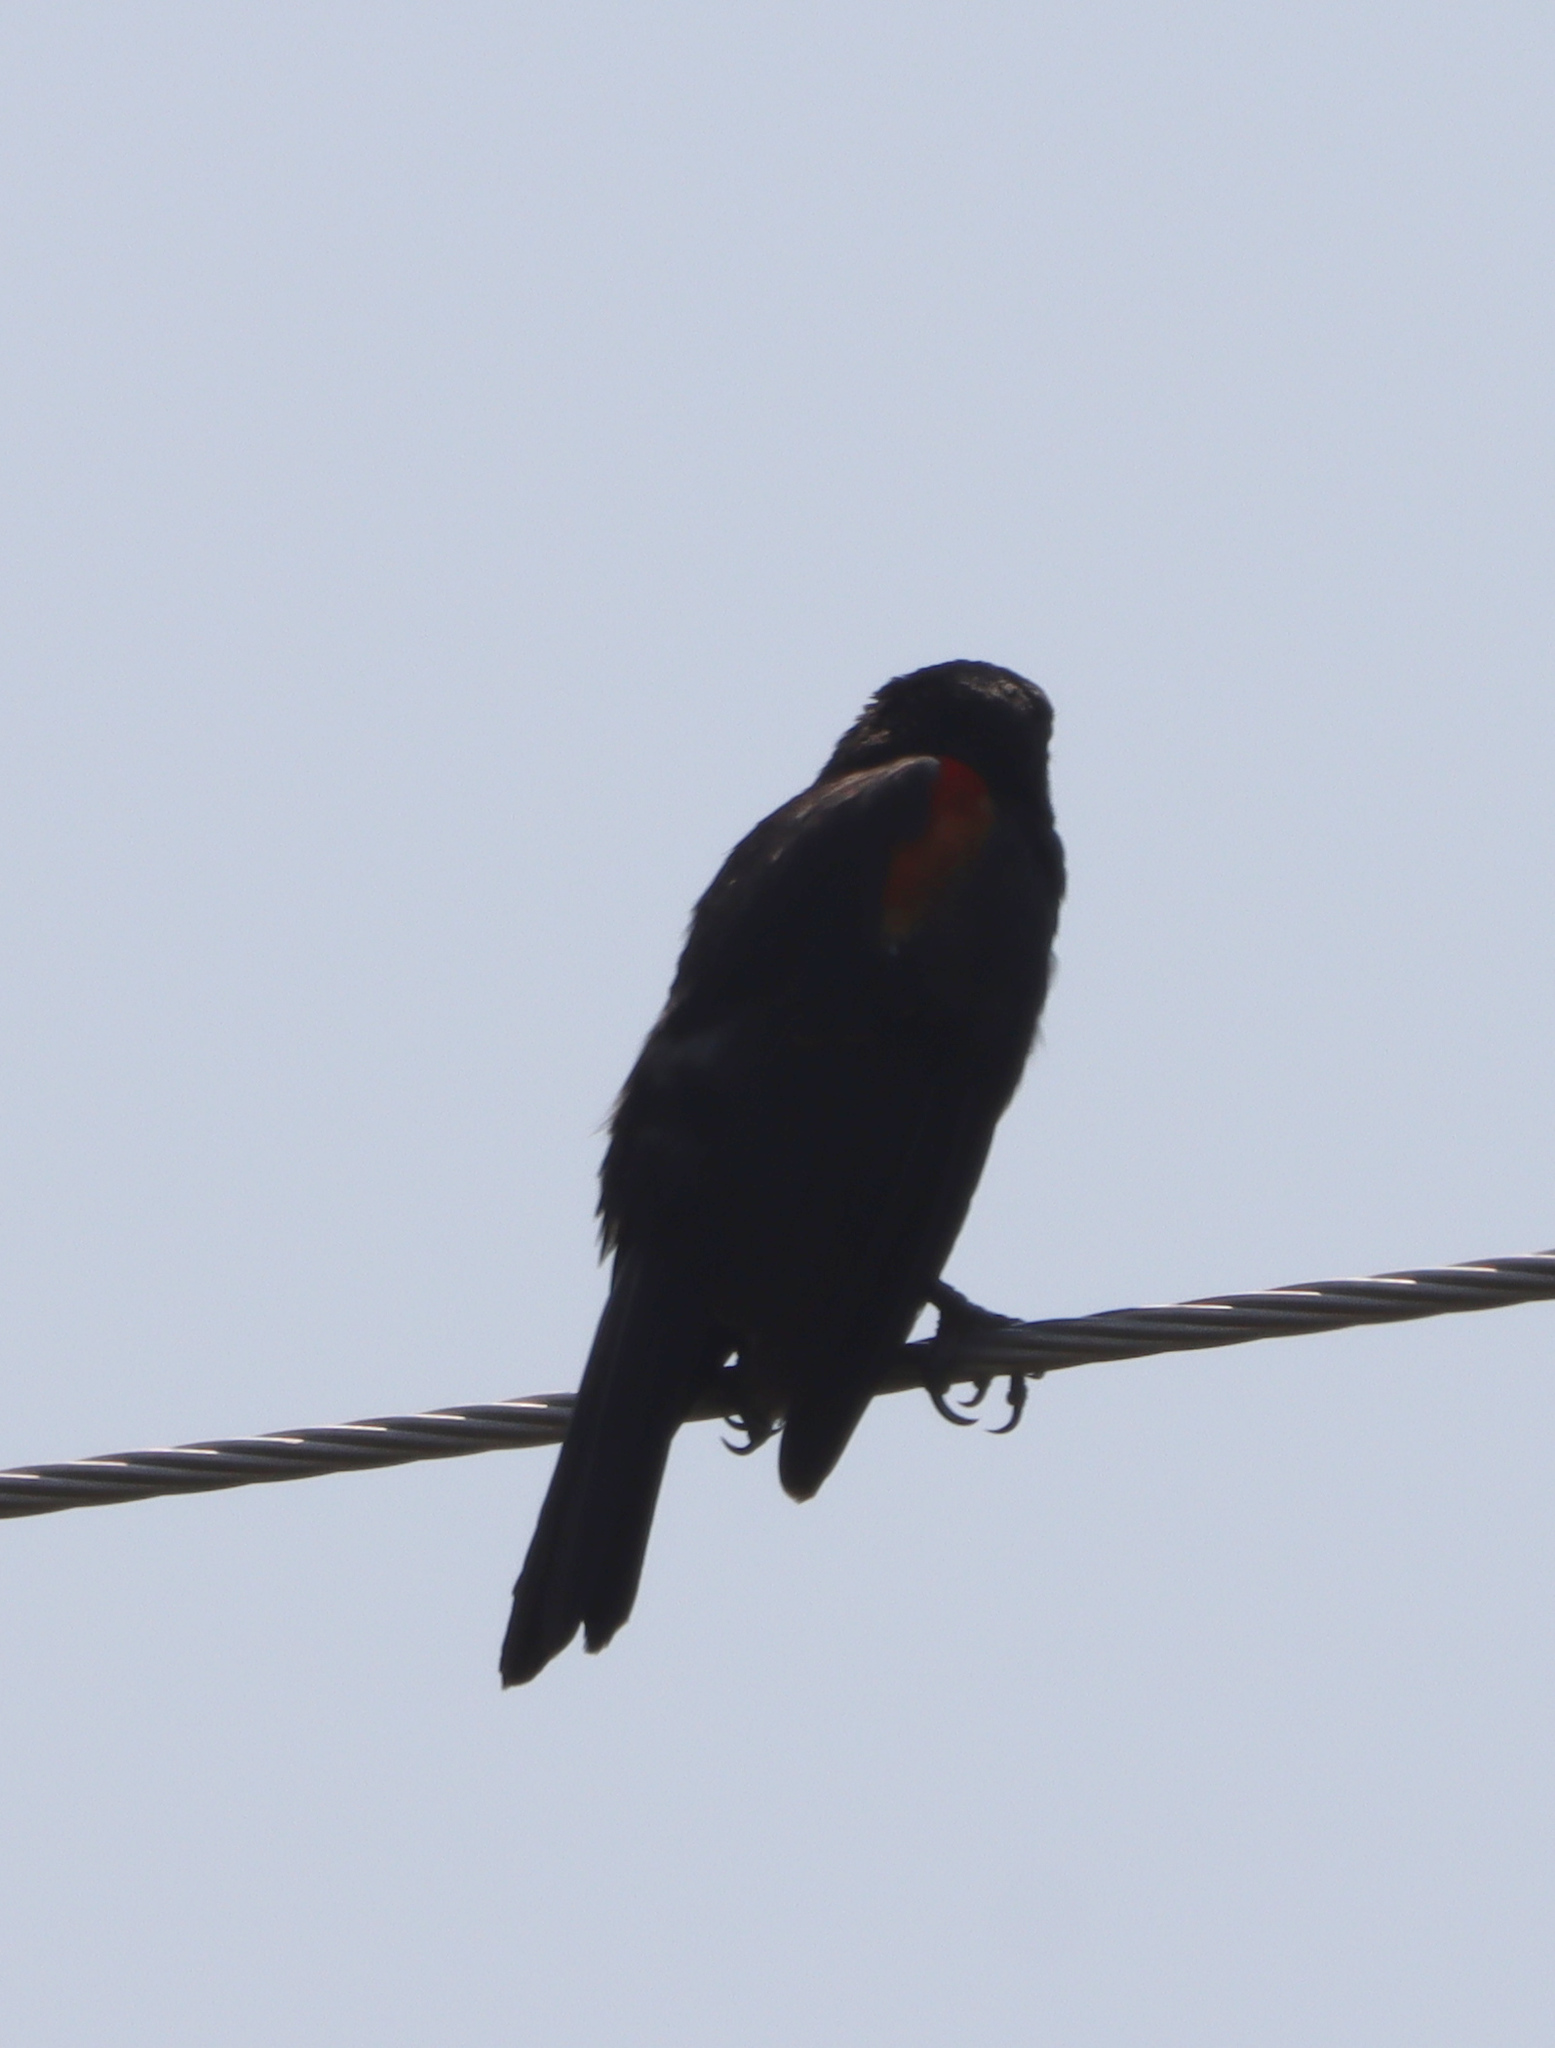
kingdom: Animalia
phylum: Chordata
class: Aves
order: Passeriformes
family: Icteridae
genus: Agelaius
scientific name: Agelaius phoeniceus
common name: Red-winged blackbird
